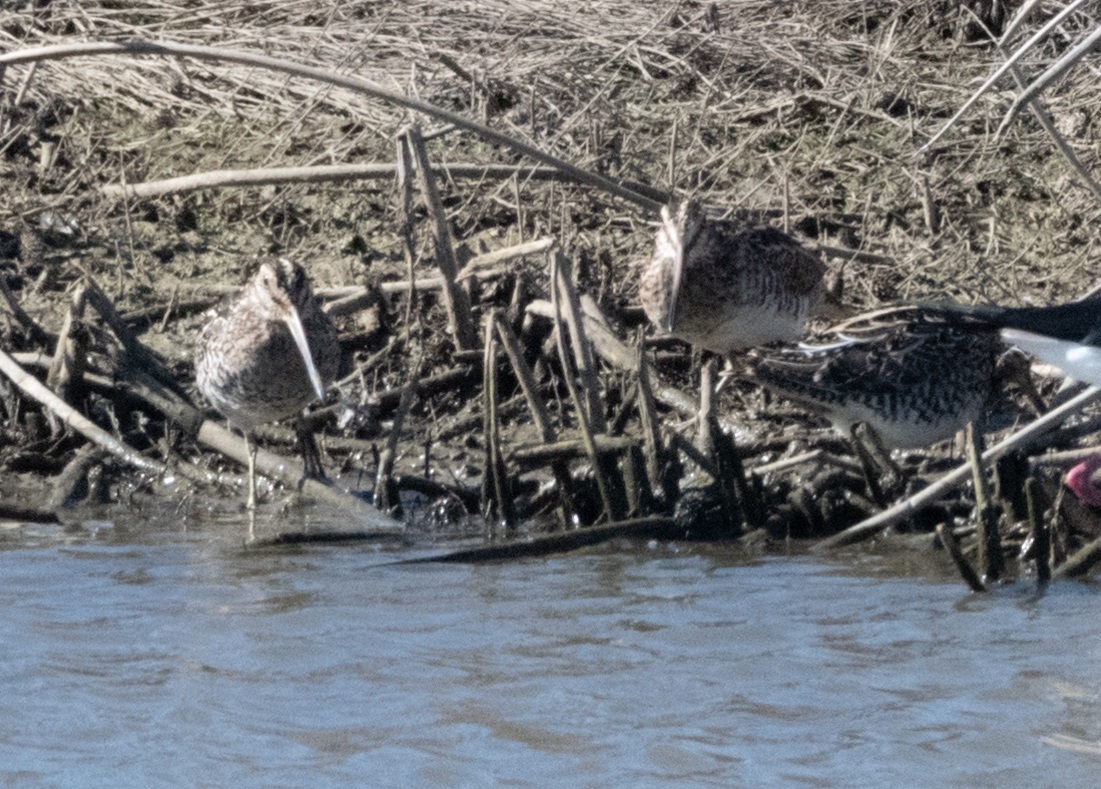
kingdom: Animalia
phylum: Chordata
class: Aves
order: Charadriiformes
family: Scolopacidae
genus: Gallinago
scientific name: Gallinago delicata
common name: Wilson's snipe
